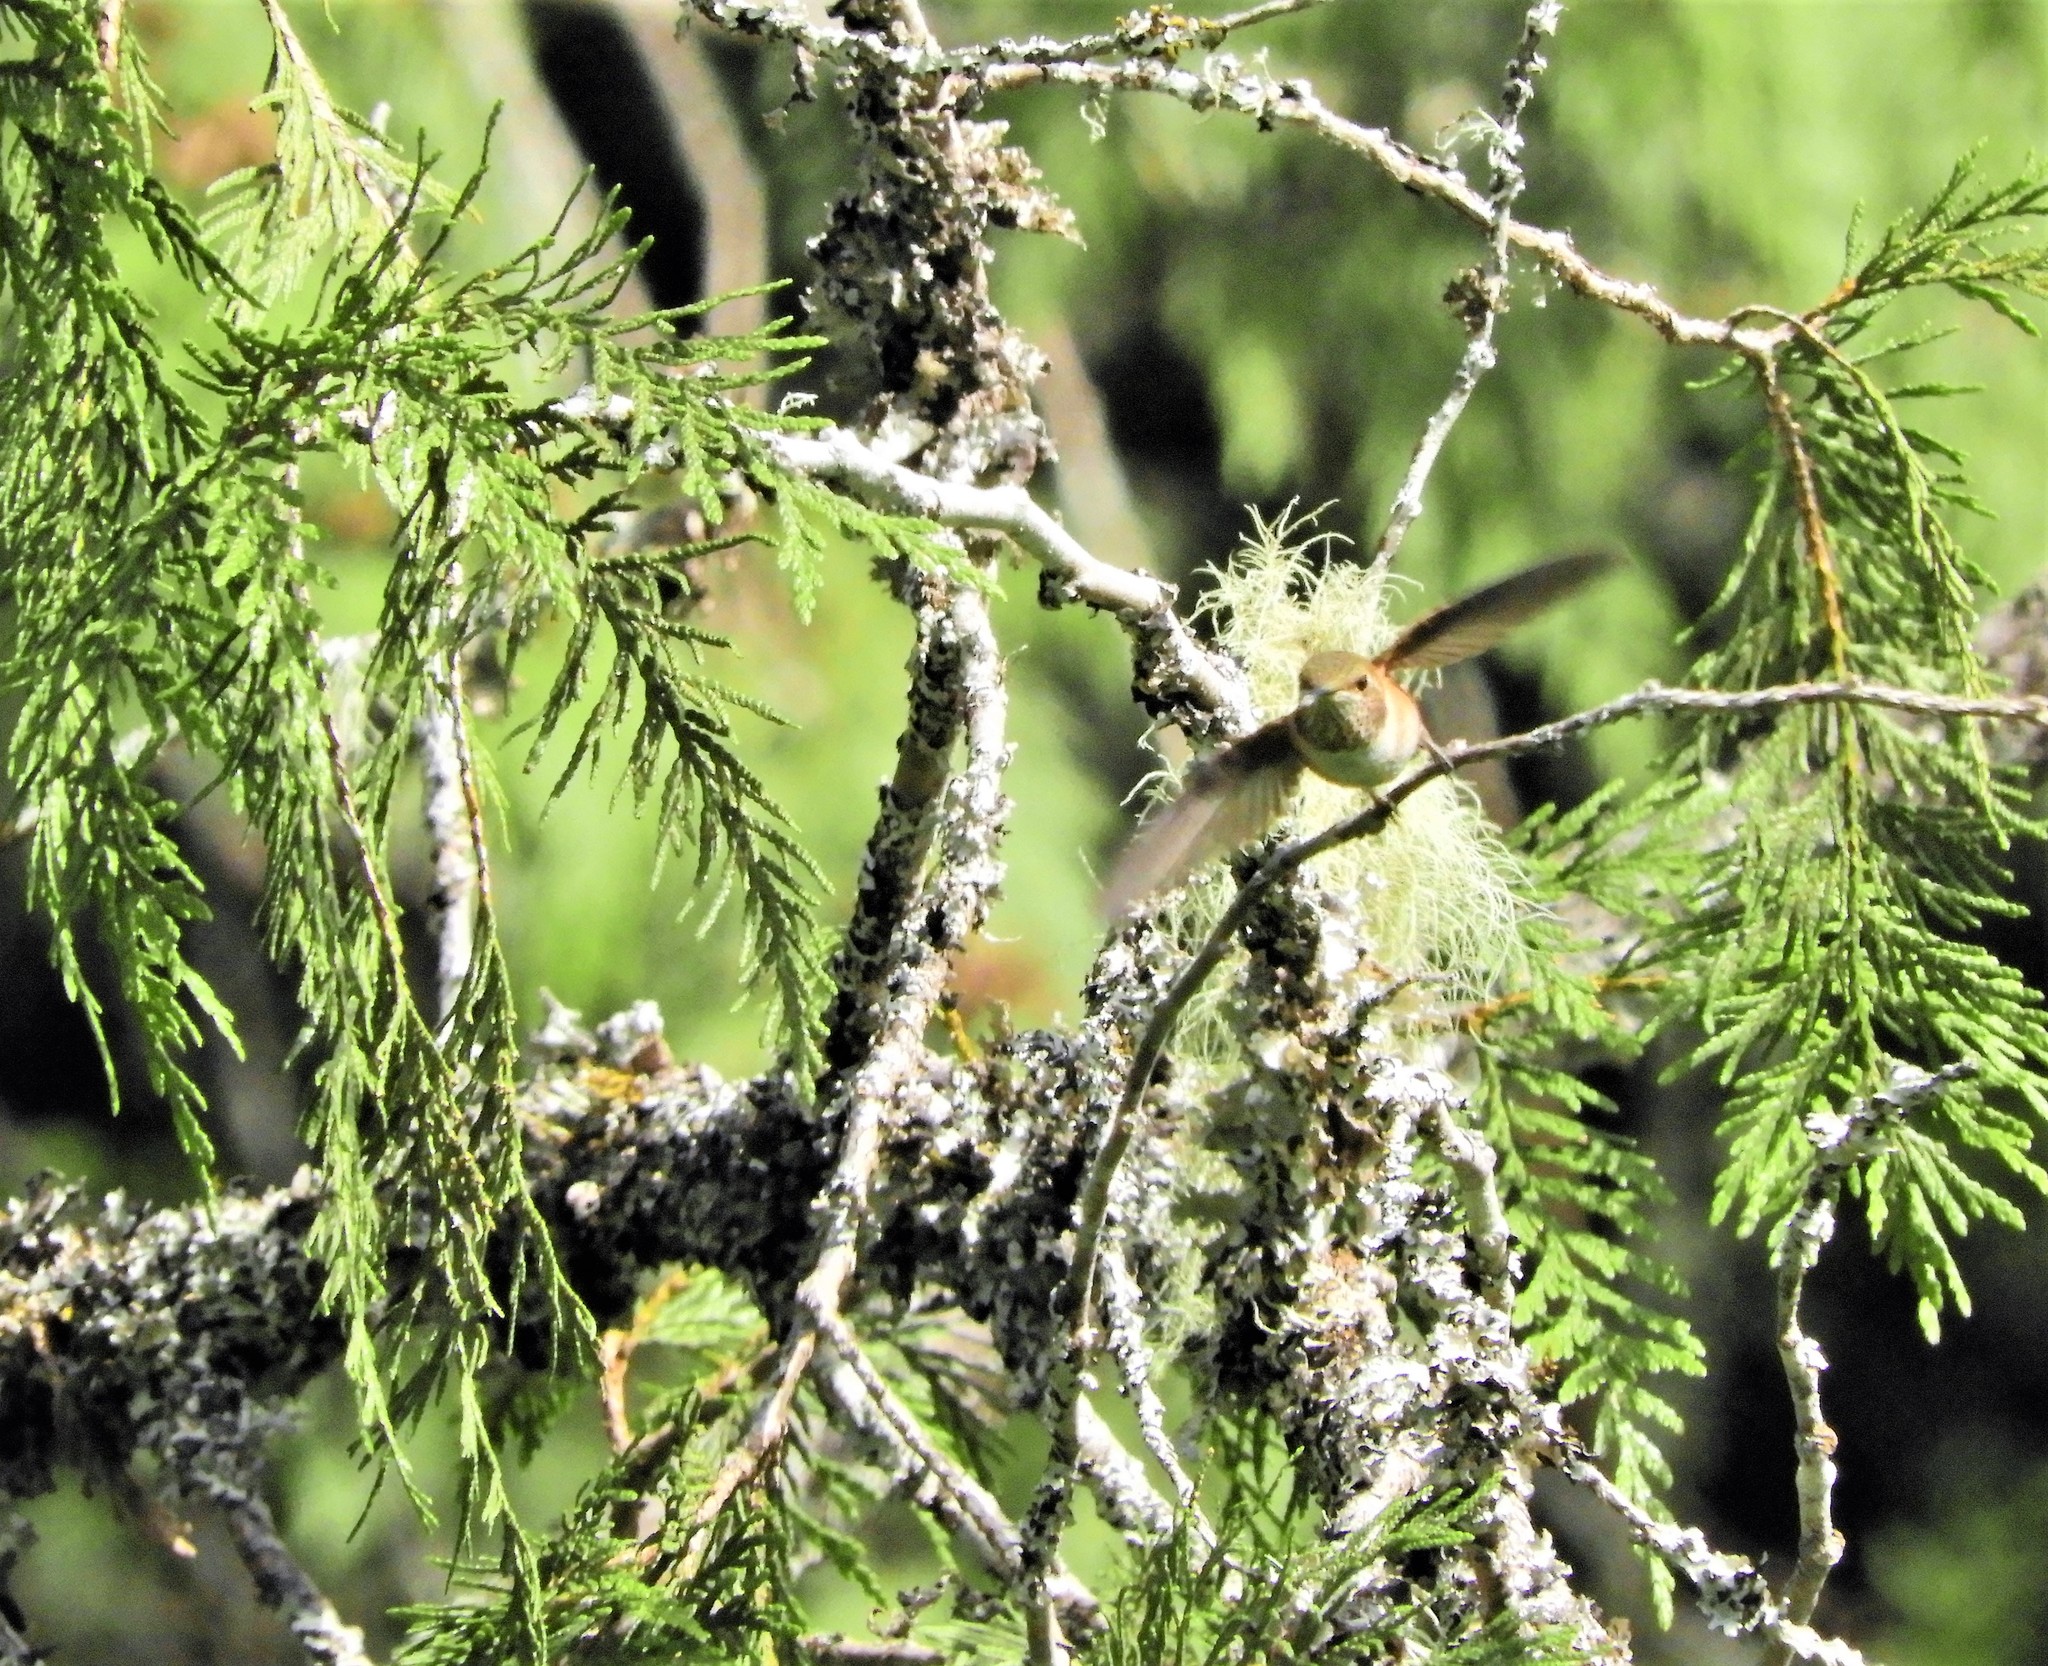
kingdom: Animalia
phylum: Chordata
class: Aves
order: Apodiformes
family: Trochilidae
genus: Selasphorus
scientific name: Selasphorus rufus
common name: Rufous hummingbird
